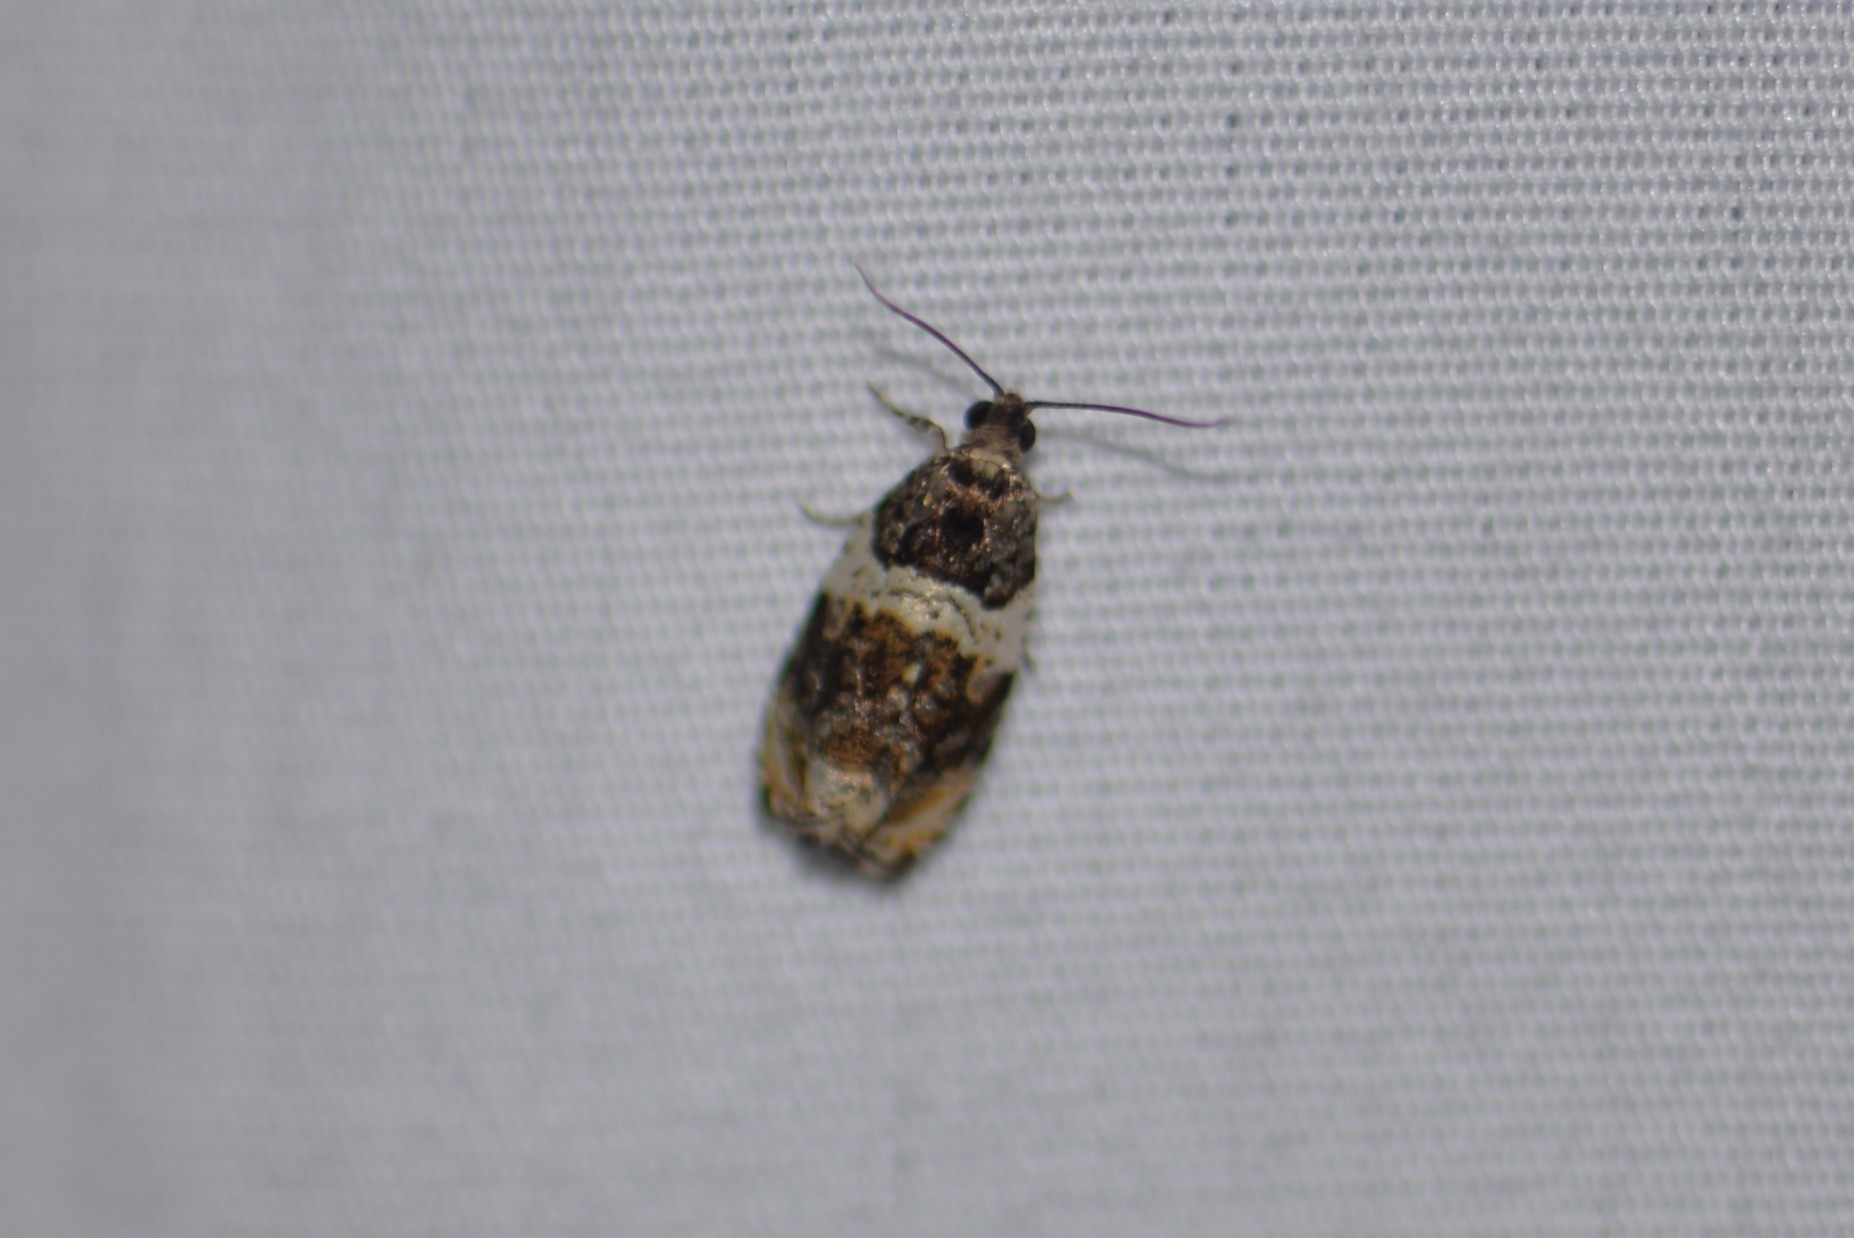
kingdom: Animalia
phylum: Arthropoda
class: Insecta
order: Lepidoptera
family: Tortricidae
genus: Olethreutes
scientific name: Olethreutes fasciatana
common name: Banded olethreutes moth
